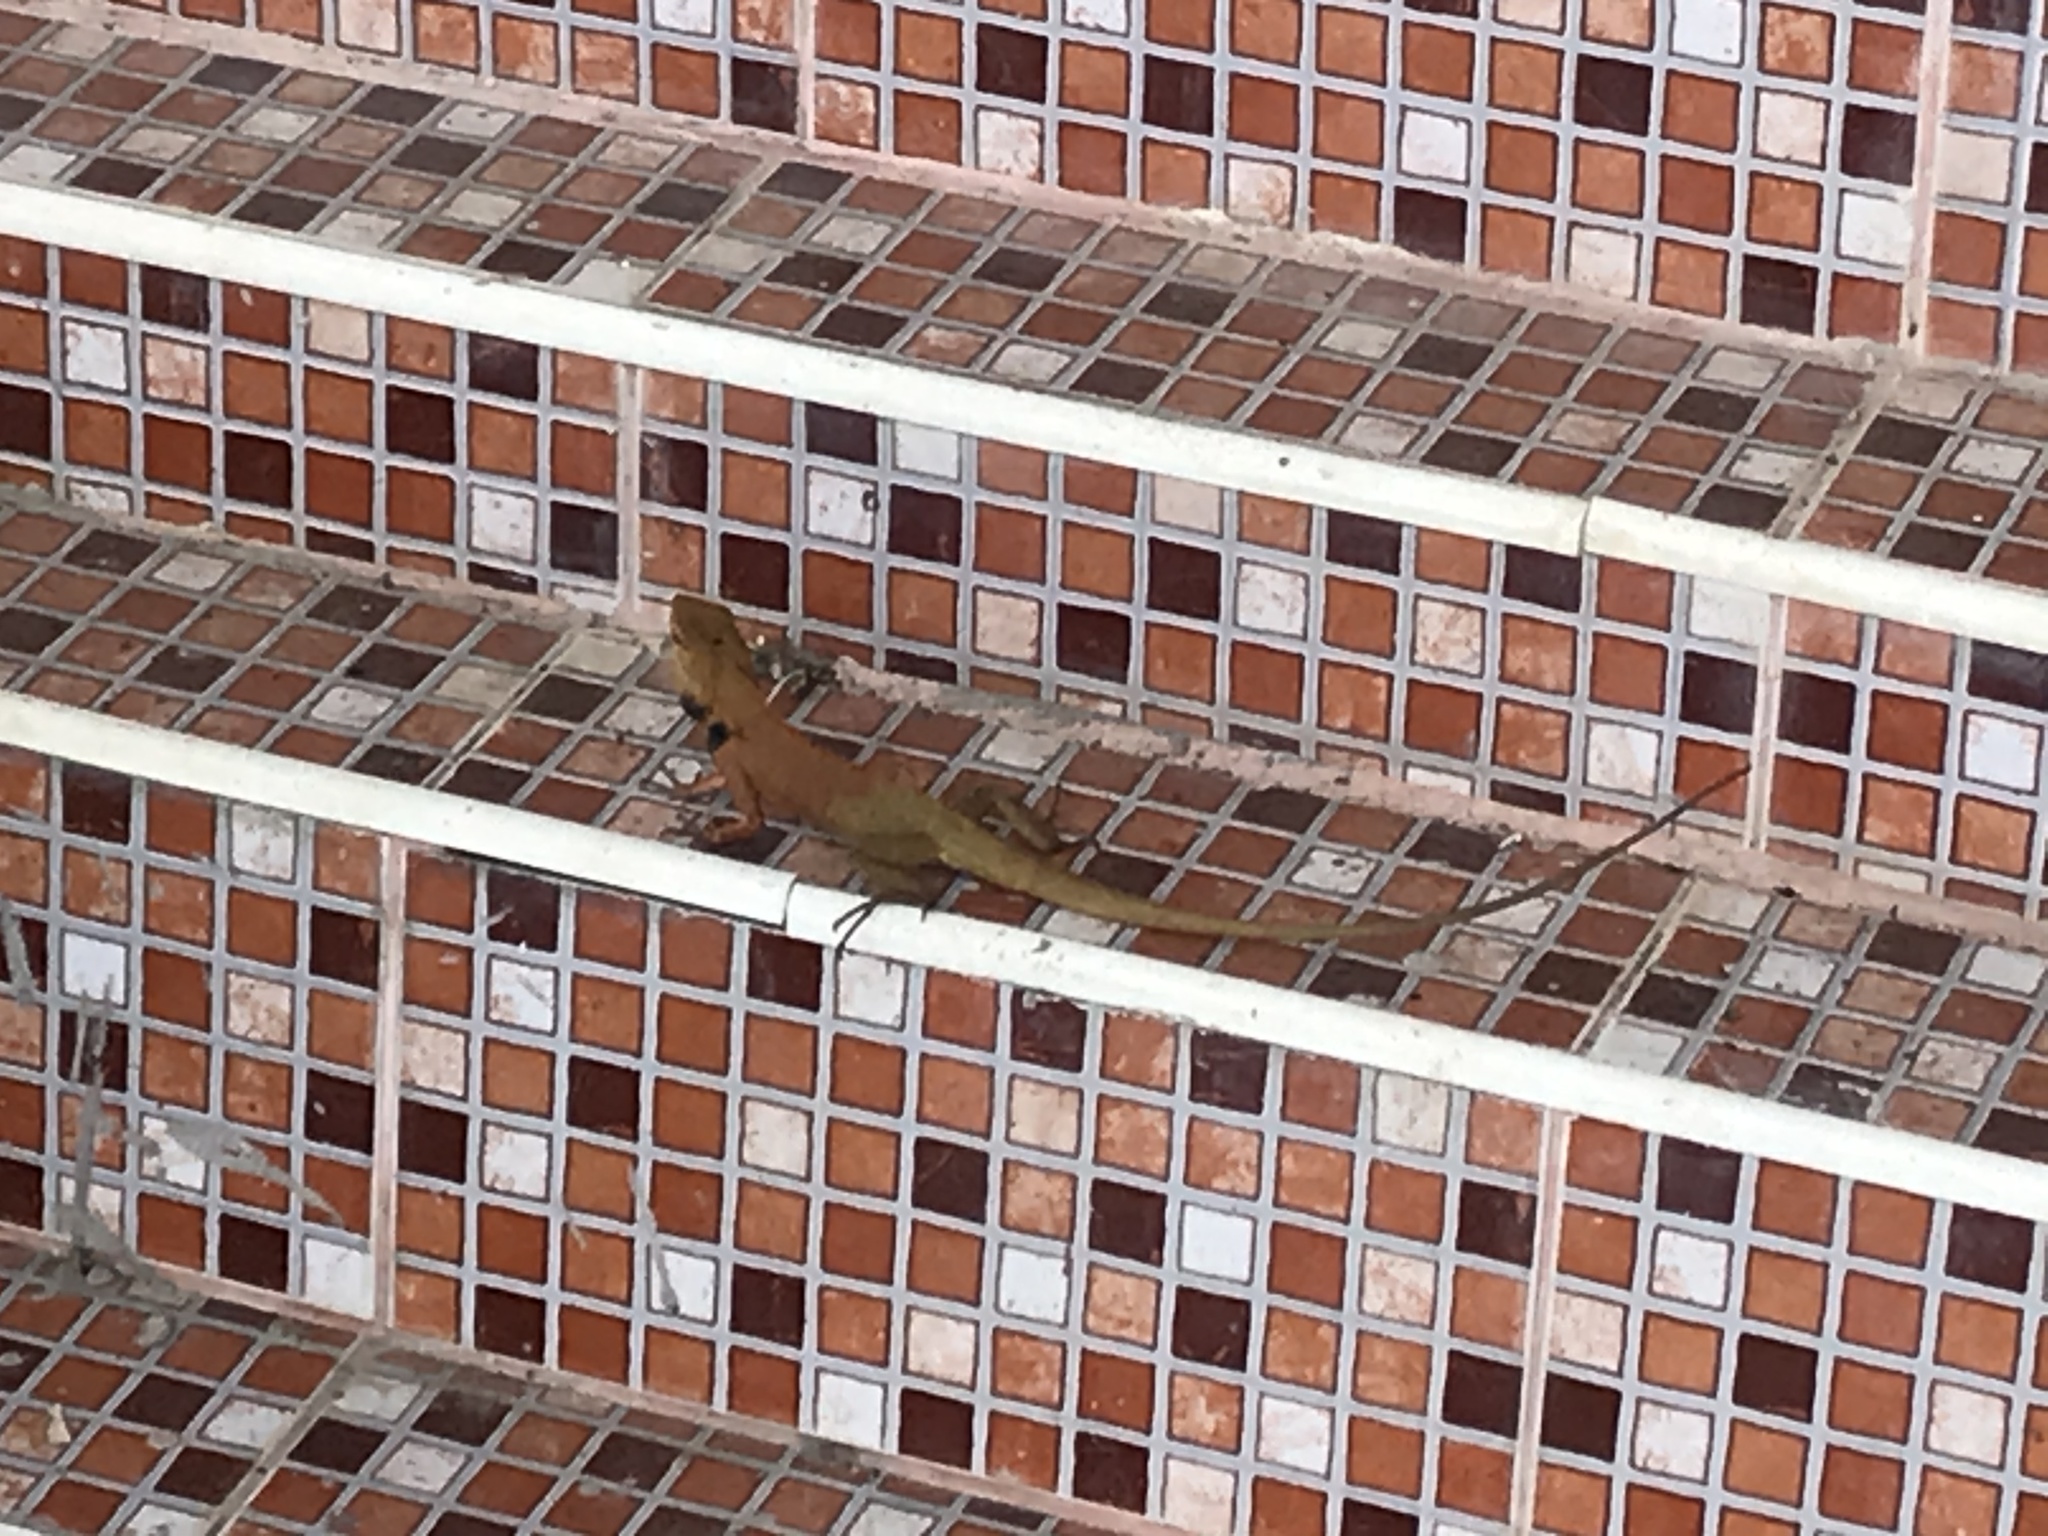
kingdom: Animalia
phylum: Chordata
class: Squamata
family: Agamidae
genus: Calotes
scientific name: Calotes versicolor
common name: Oriental garden lizard
